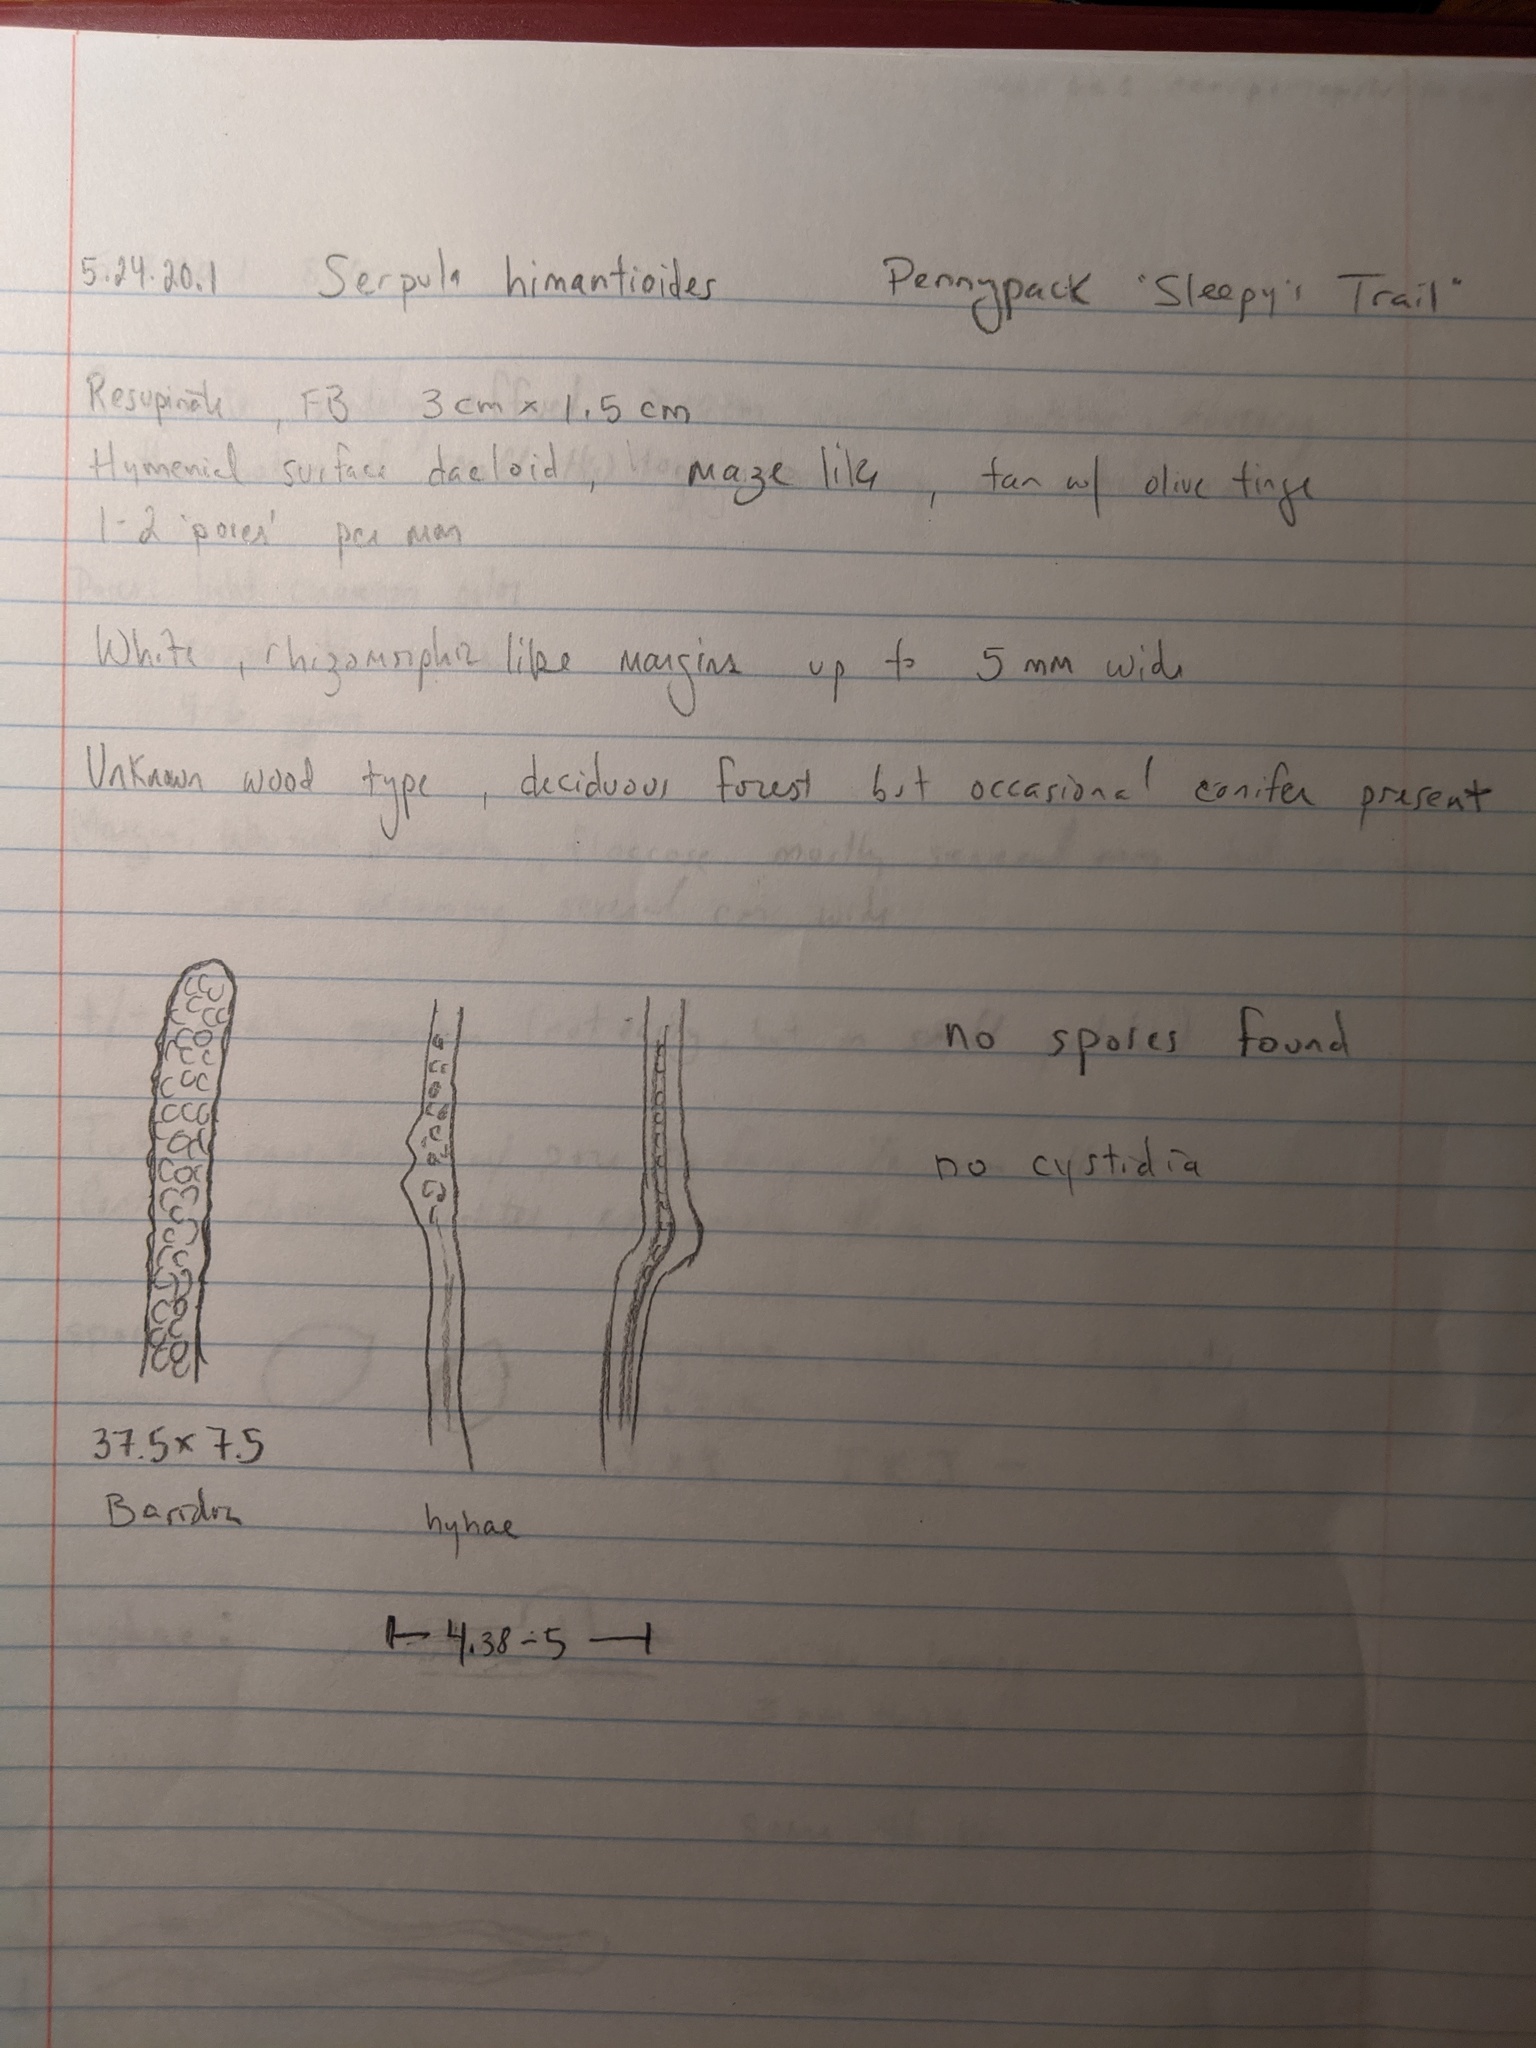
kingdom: Fungi
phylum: Basidiomycota
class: Agaricomycetes
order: Boletales
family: Serpulaceae
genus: Serpula
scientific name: Serpula himantioides
